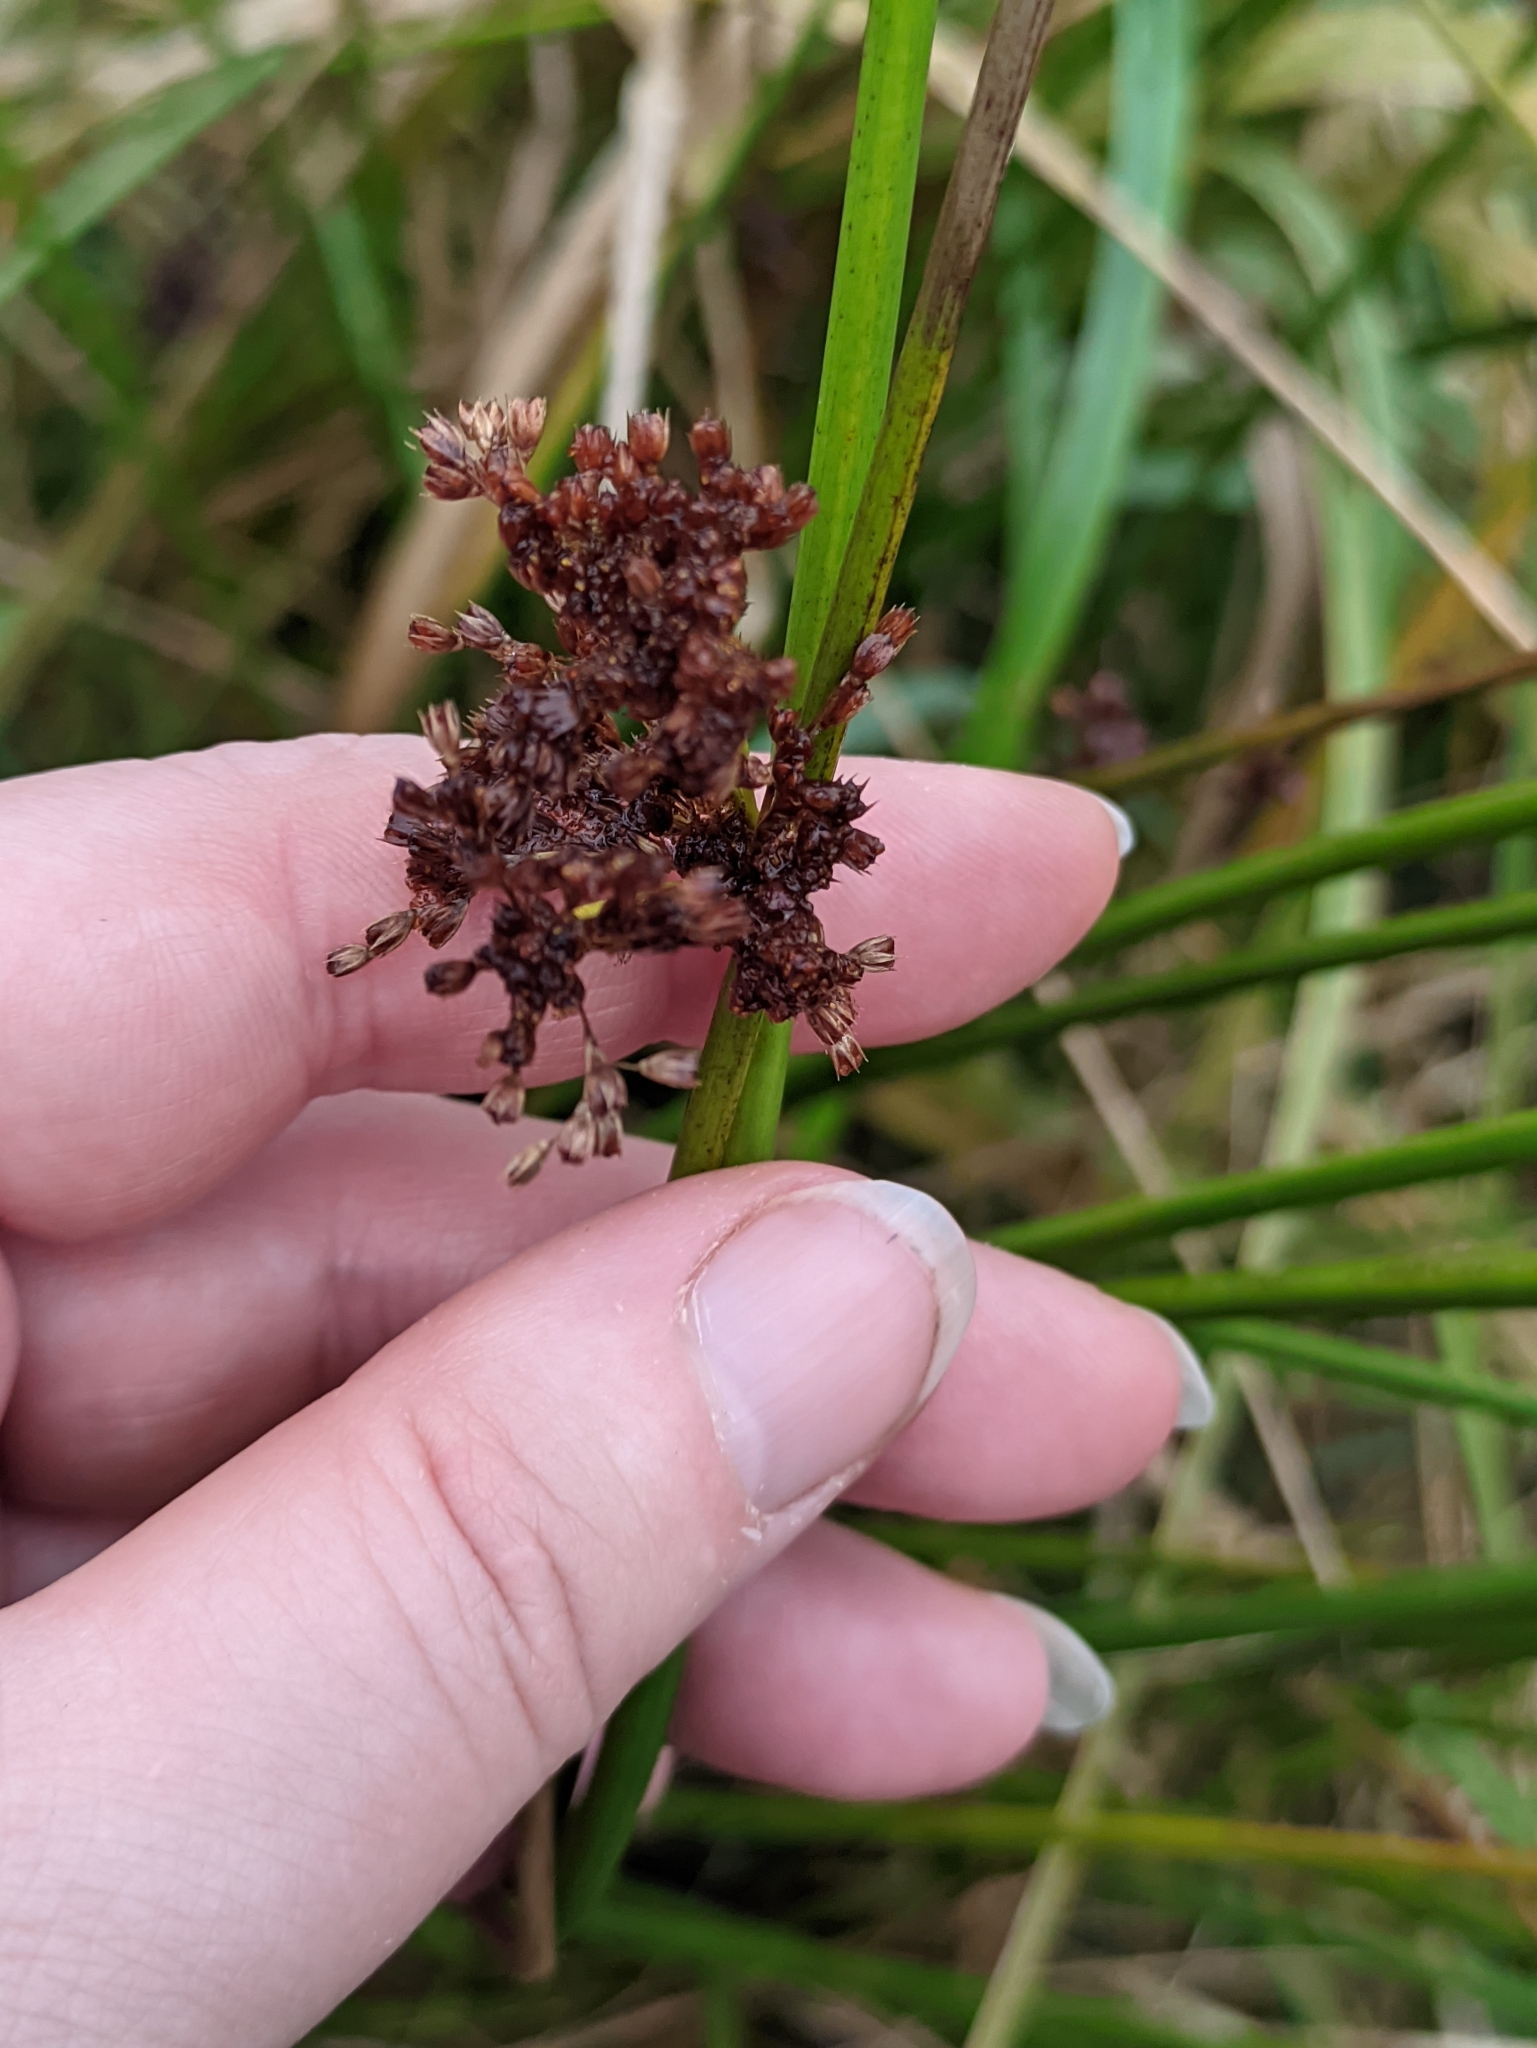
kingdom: Plantae
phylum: Tracheophyta
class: Liliopsida
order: Poales
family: Juncaceae
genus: Juncus
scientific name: Juncus effusus
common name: Soft rush
